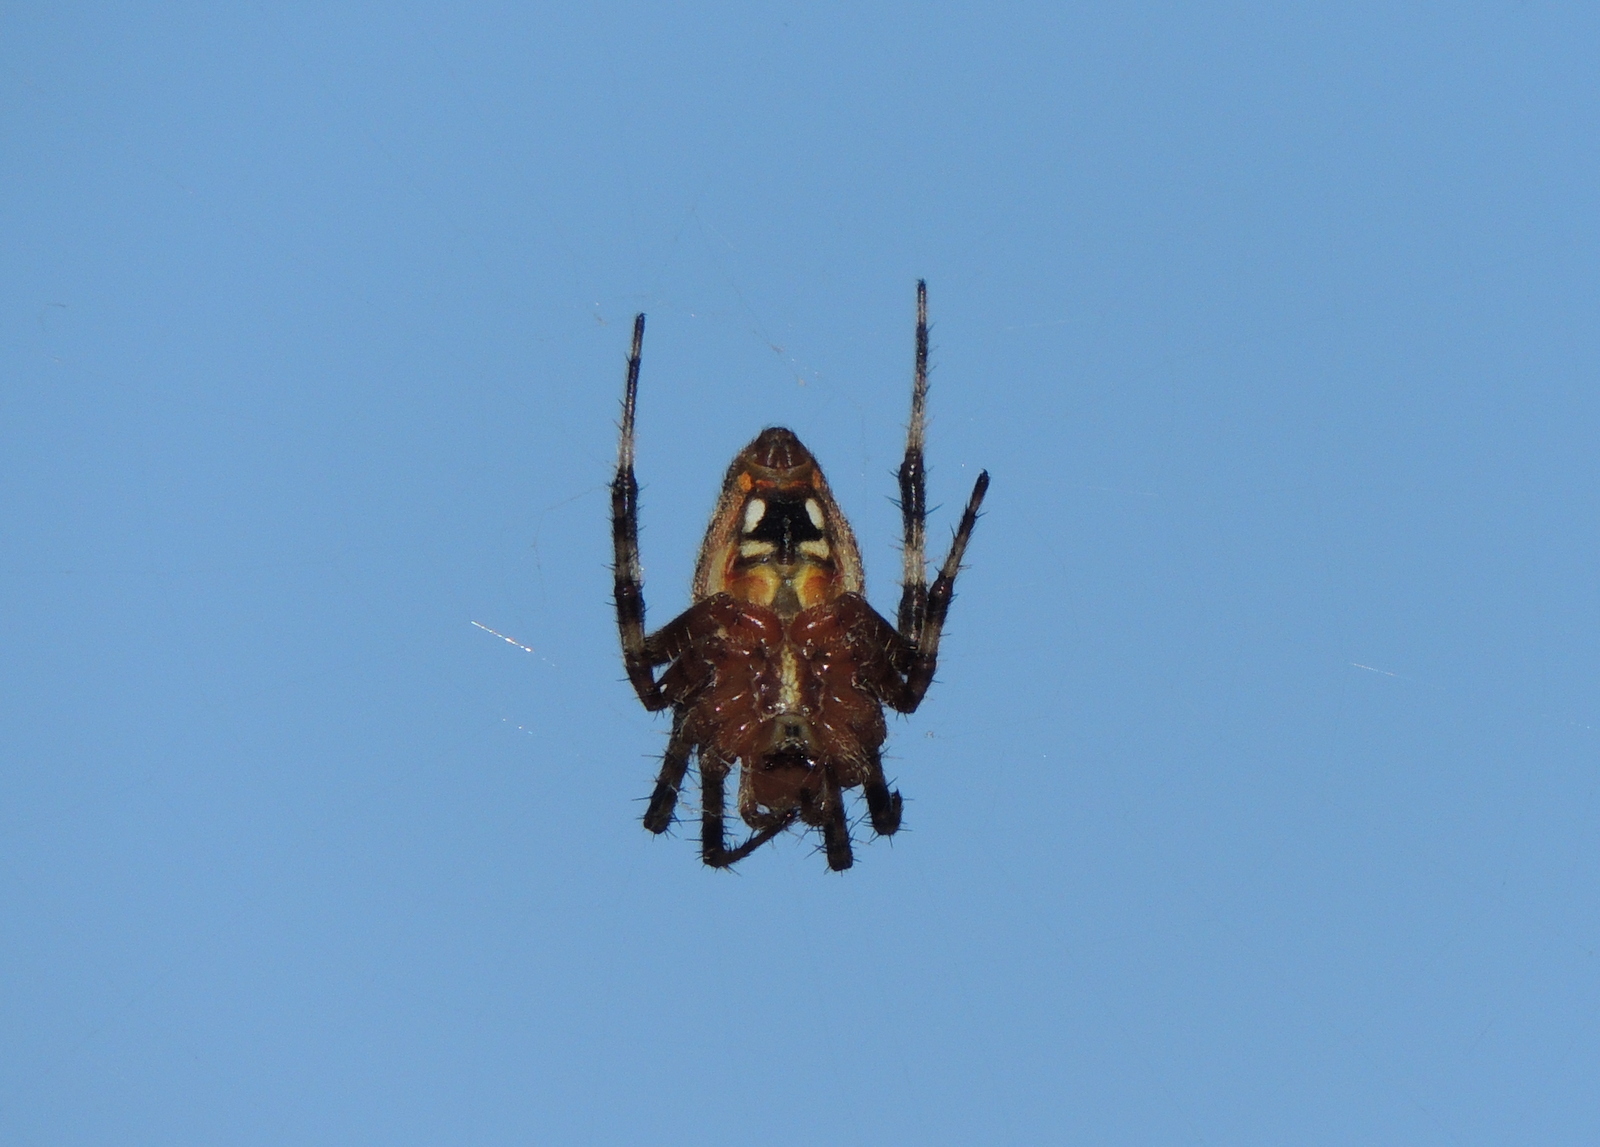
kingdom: Animalia
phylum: Arthropoda
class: Arachnida
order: Araneae
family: Araneidae
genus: Neoscona
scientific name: Neoscona crucifera
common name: Spotted orbweaver
